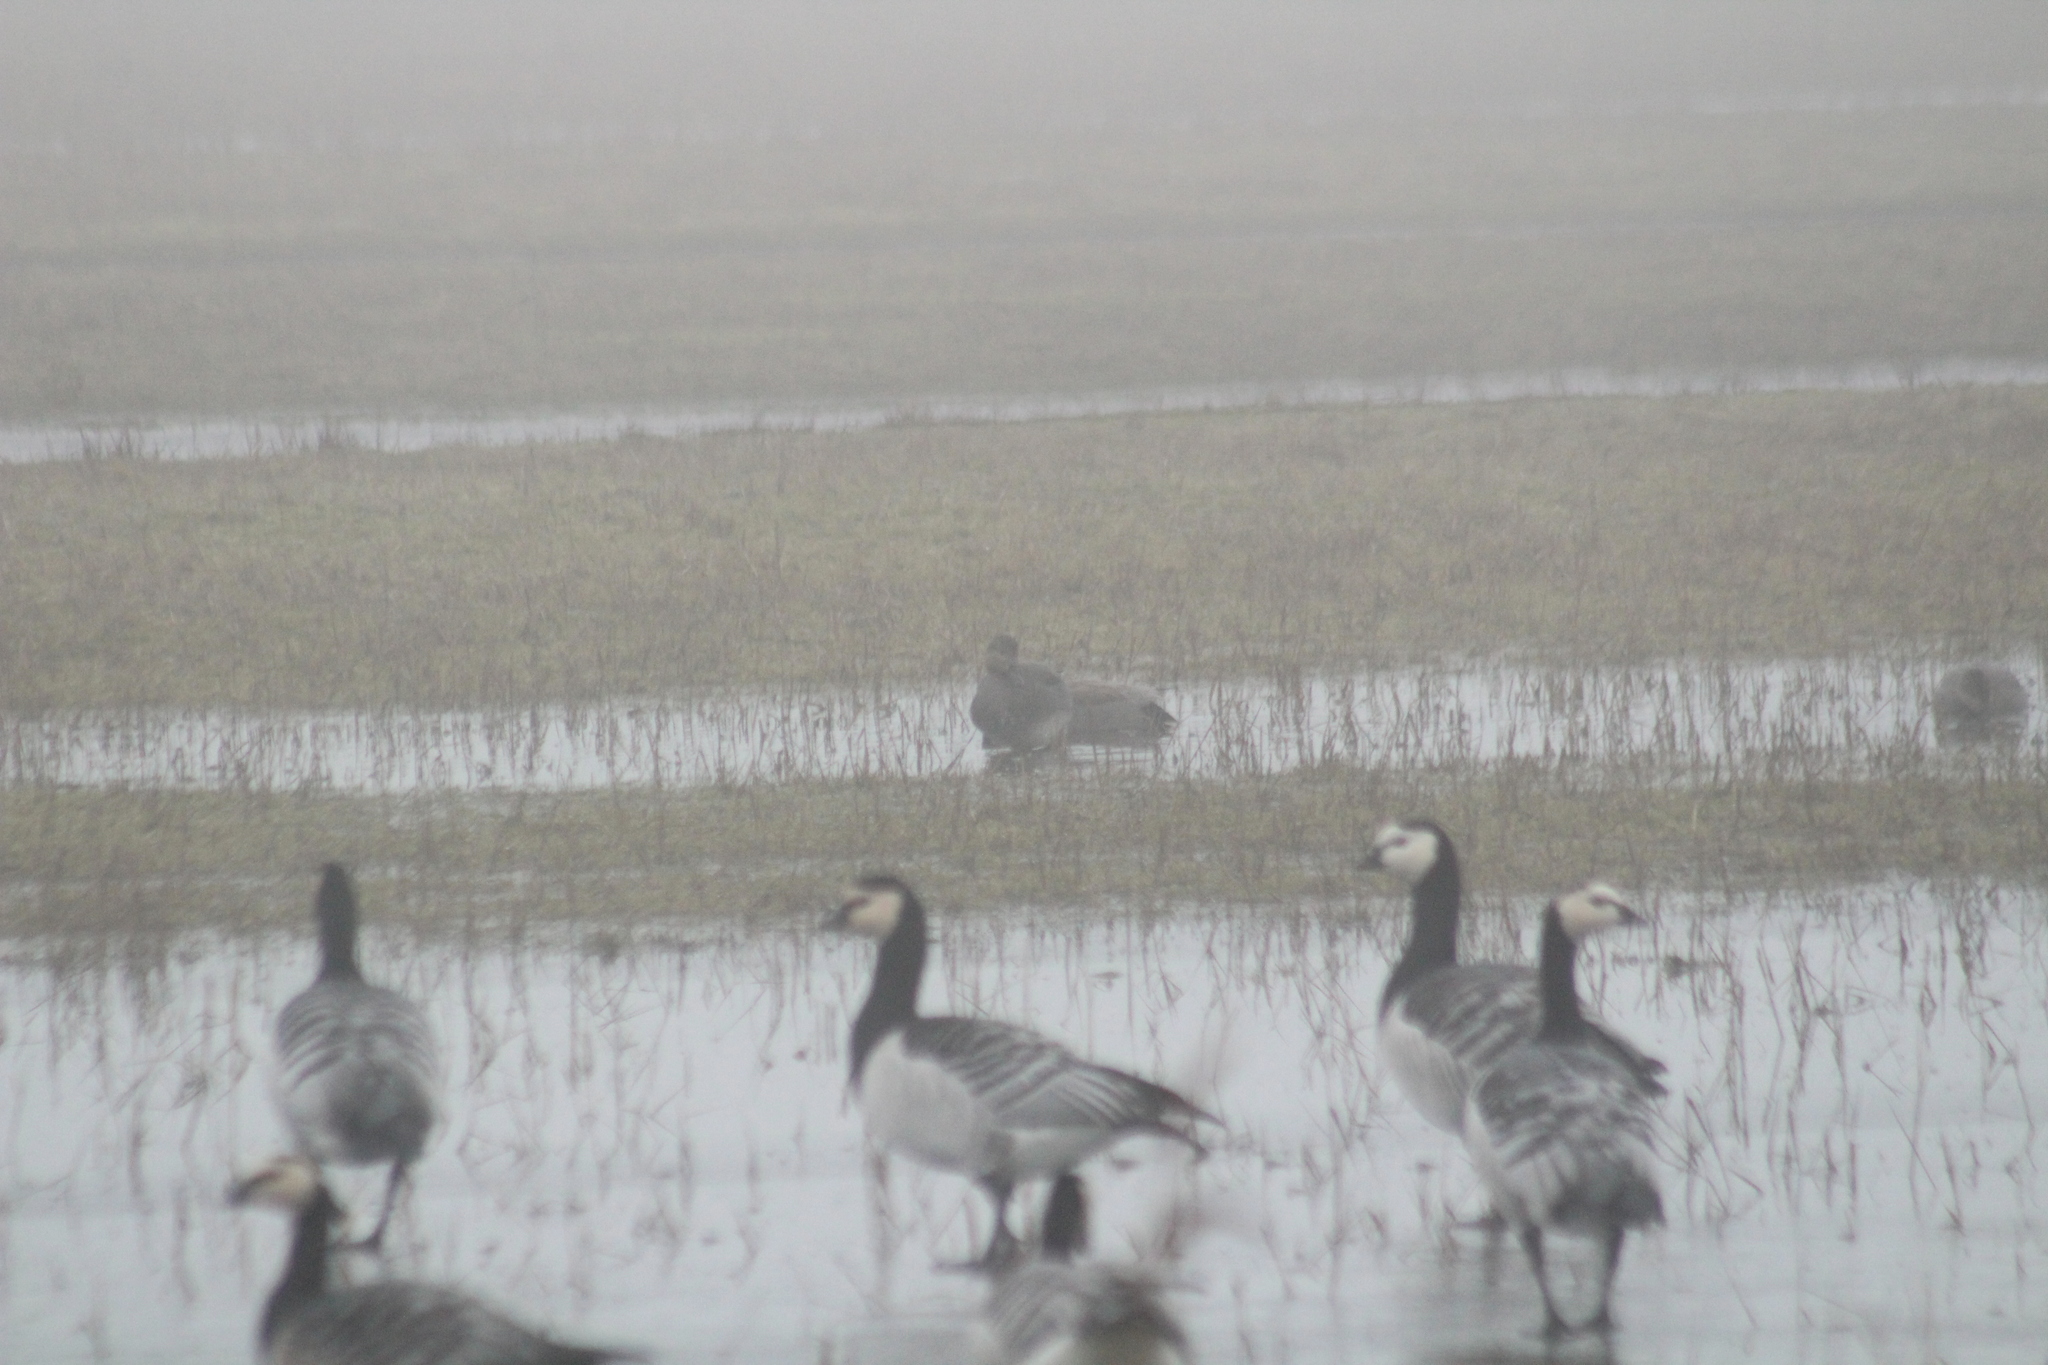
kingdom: Animalia
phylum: Chordata
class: Aves
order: Anseriformes
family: Anatidae
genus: Mareca
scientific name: Mareca strepera
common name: Gadwall
